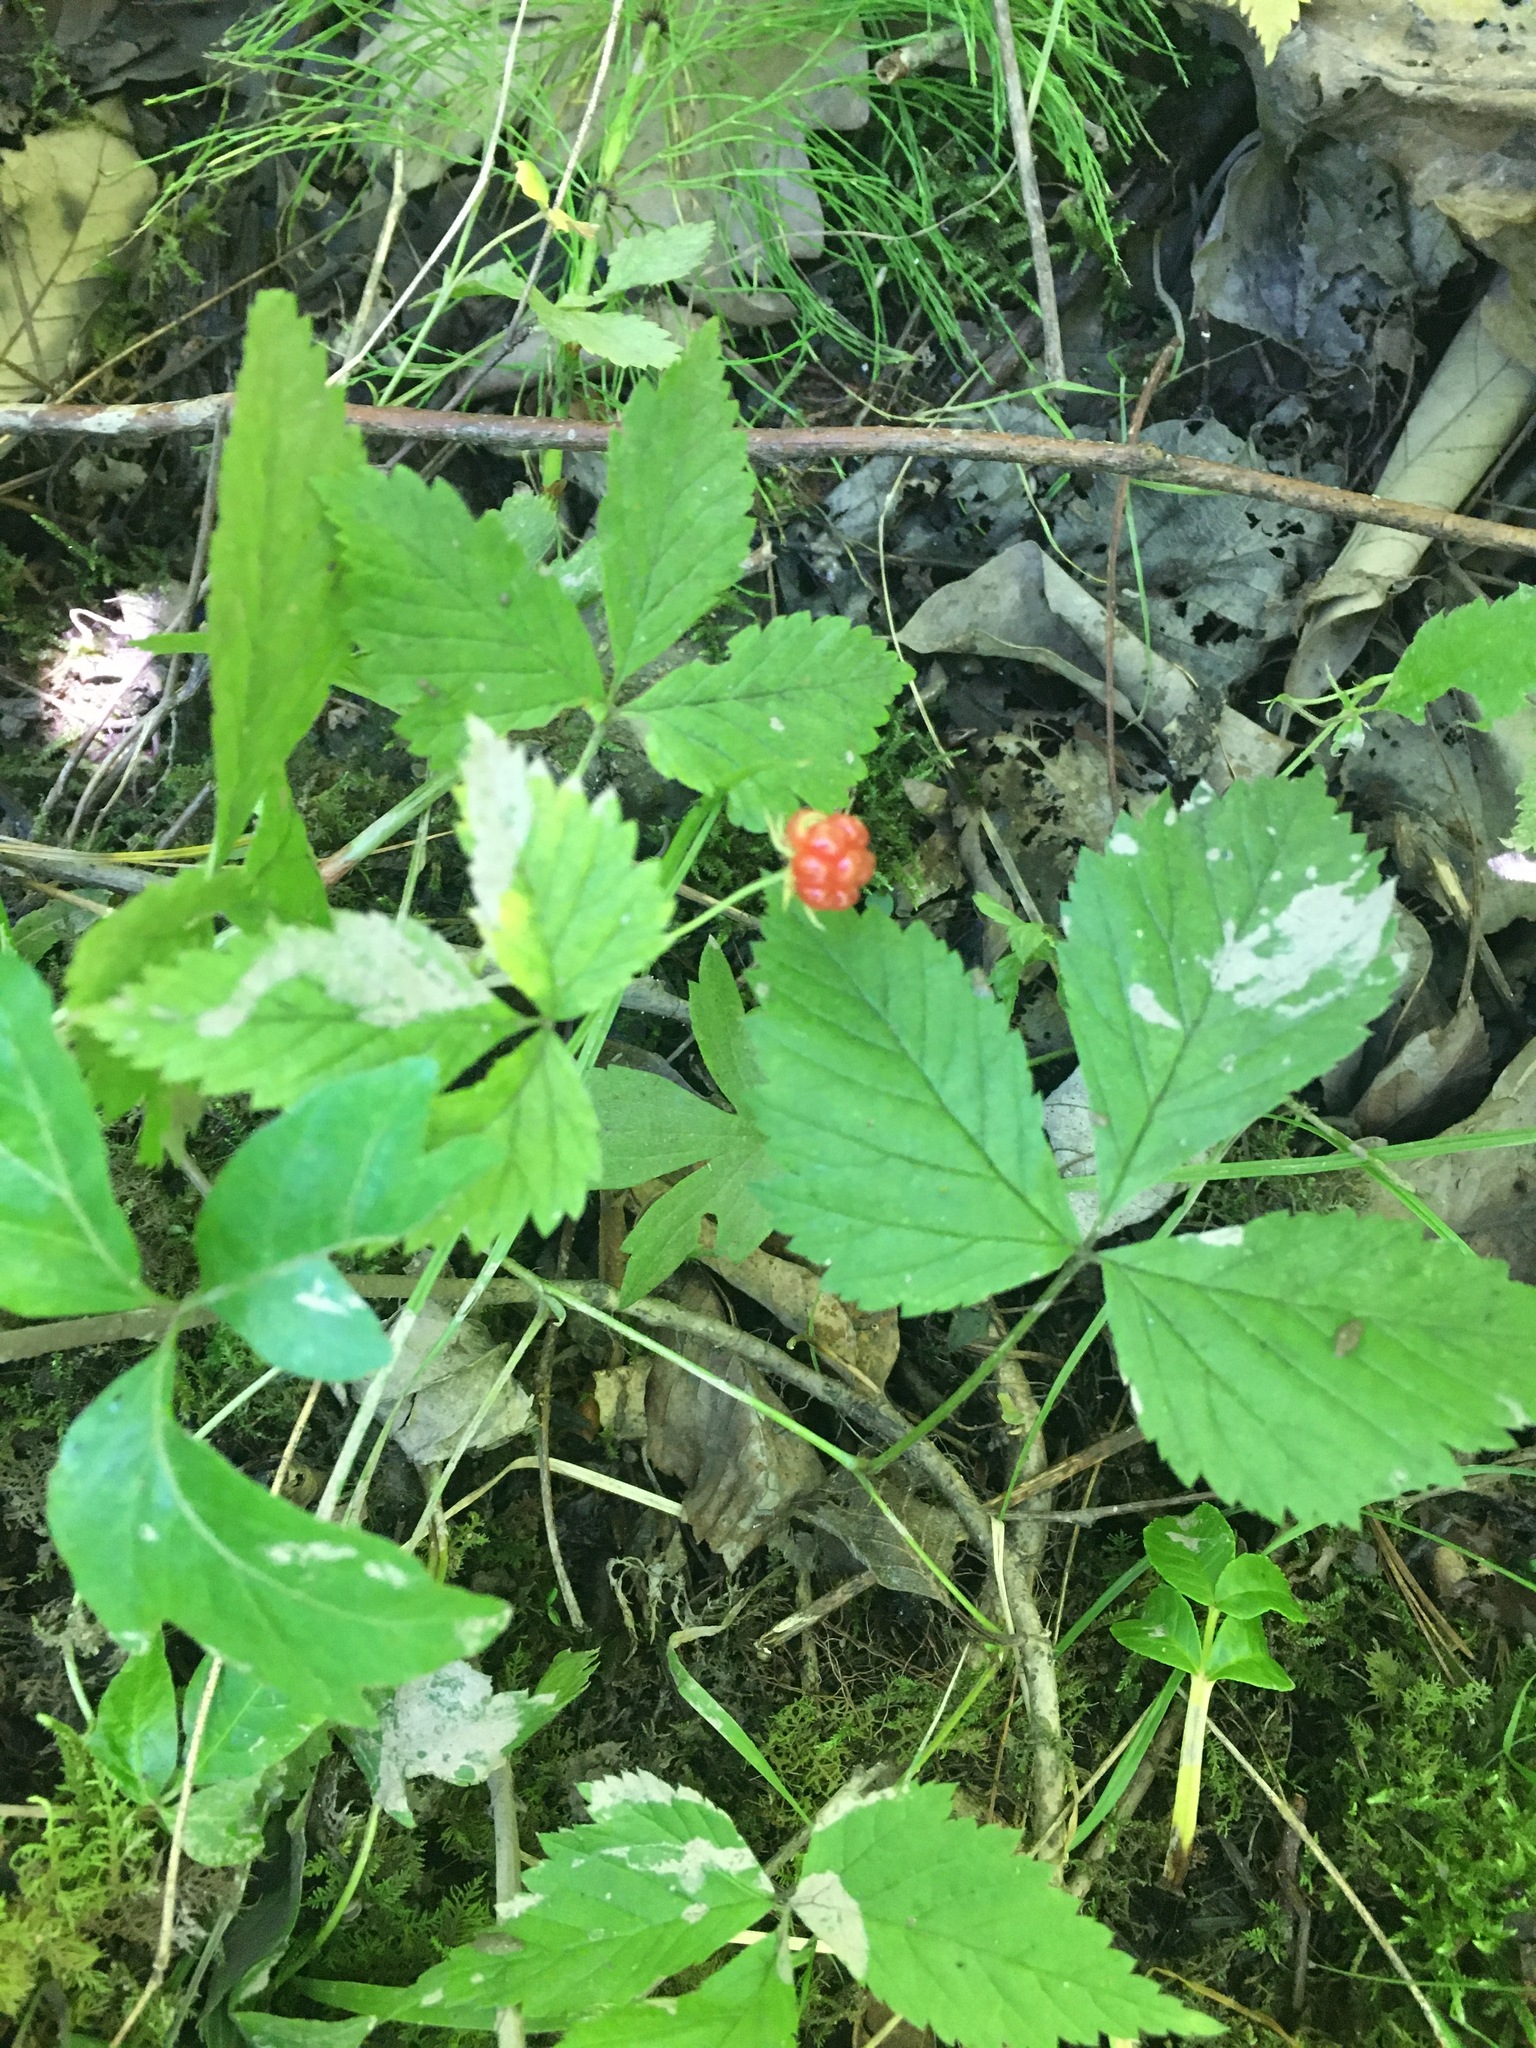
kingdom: Plantae
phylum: Tracheophyta
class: Magnoliopsida
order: Rosales
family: Rosaceae
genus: Rubus
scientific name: Rubus pubescens
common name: Dwarf raspberry
